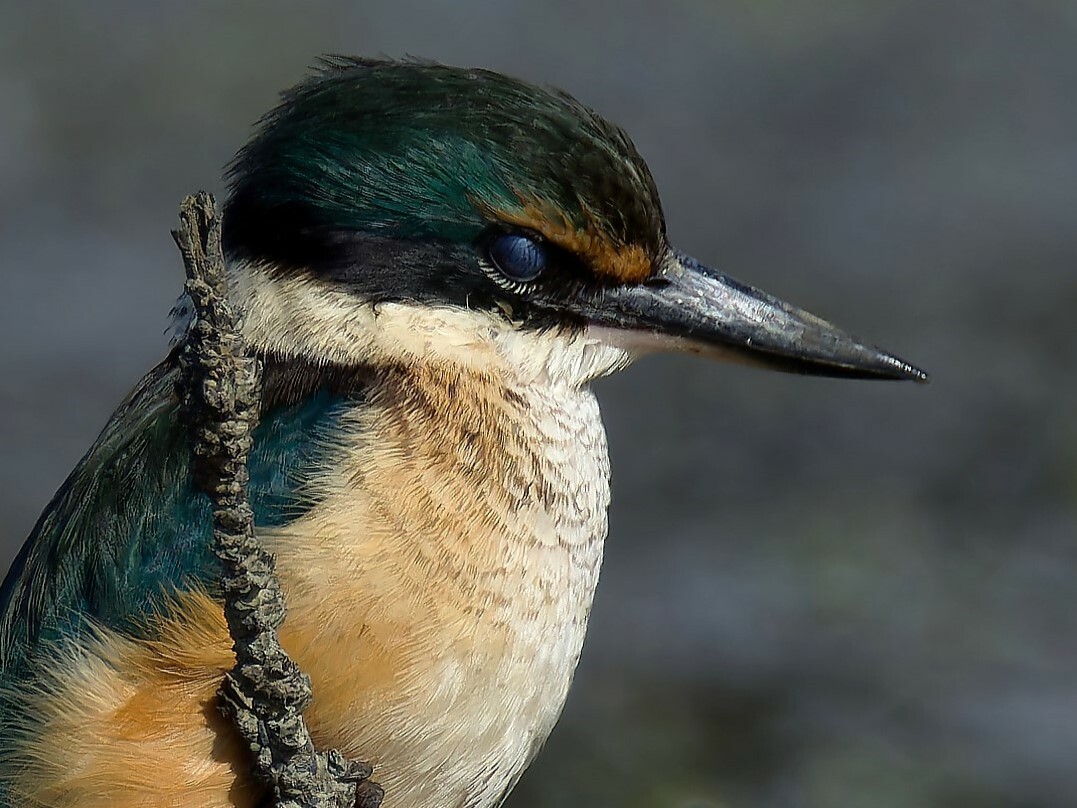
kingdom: Animalia
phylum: Chordata
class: Aves
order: Coraciiformes
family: Alcedinidae
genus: Todiramphus
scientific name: Todiramphus sanctus
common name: Sacred kingfisher
